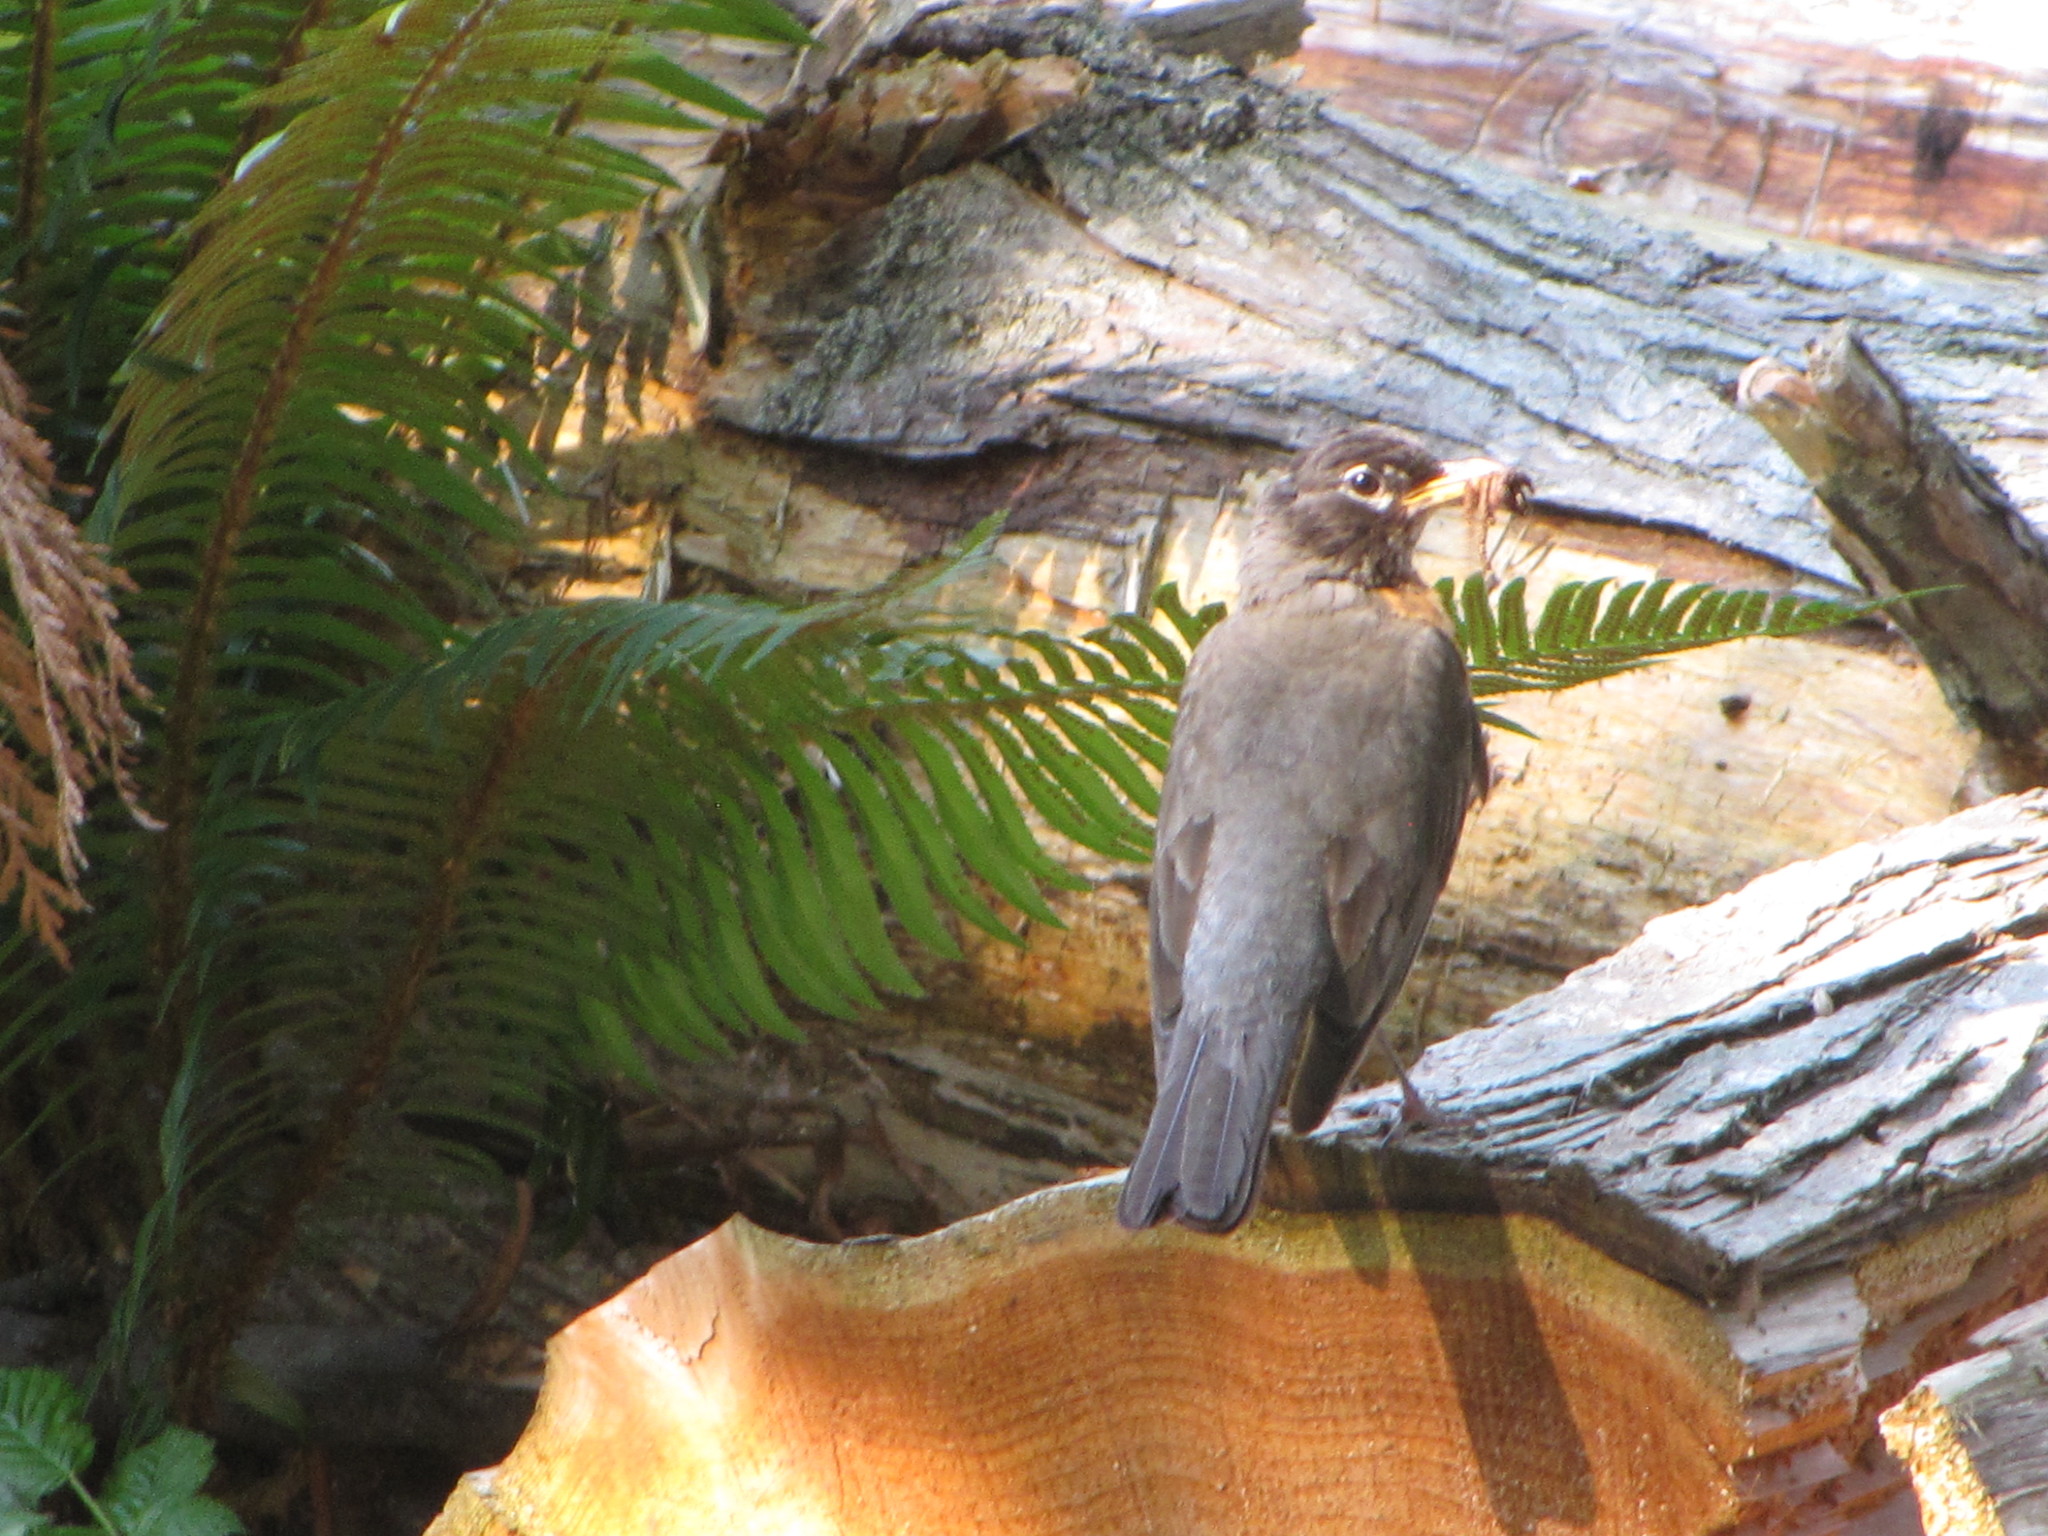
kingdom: Animalia
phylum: Chordata
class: Aves
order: Passeriformes
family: Turdidae
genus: Turdus
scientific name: Turdus migratorius
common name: American robin
